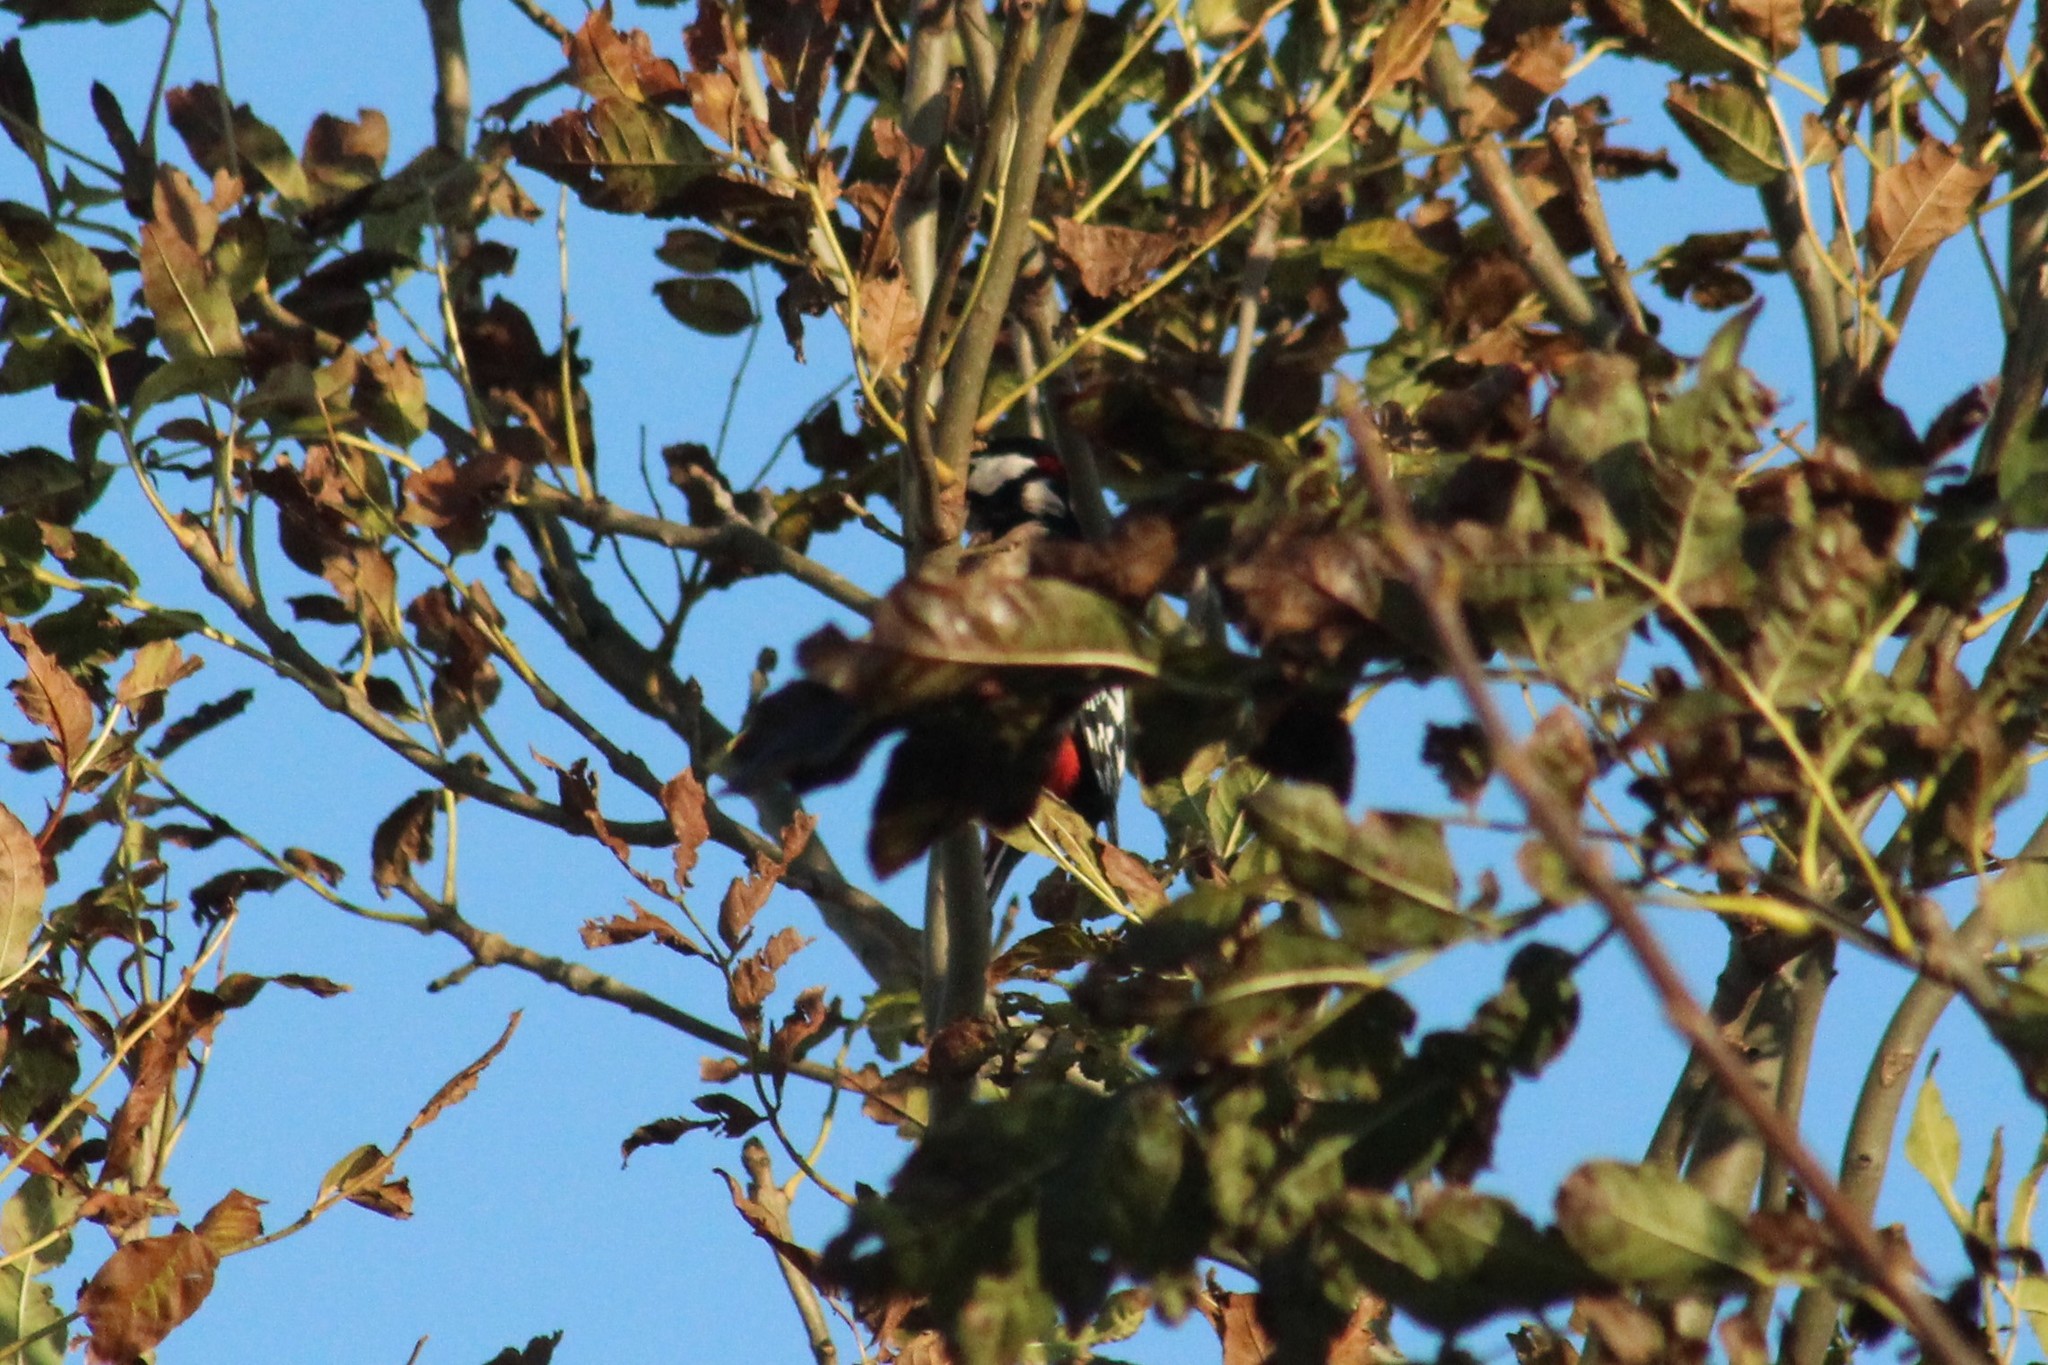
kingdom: Animalia
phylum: Chordata
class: Aves
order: Piciformes
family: Picidae
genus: Dendrocopos
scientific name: Dendrocopos major
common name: Great spotted woodpecker
